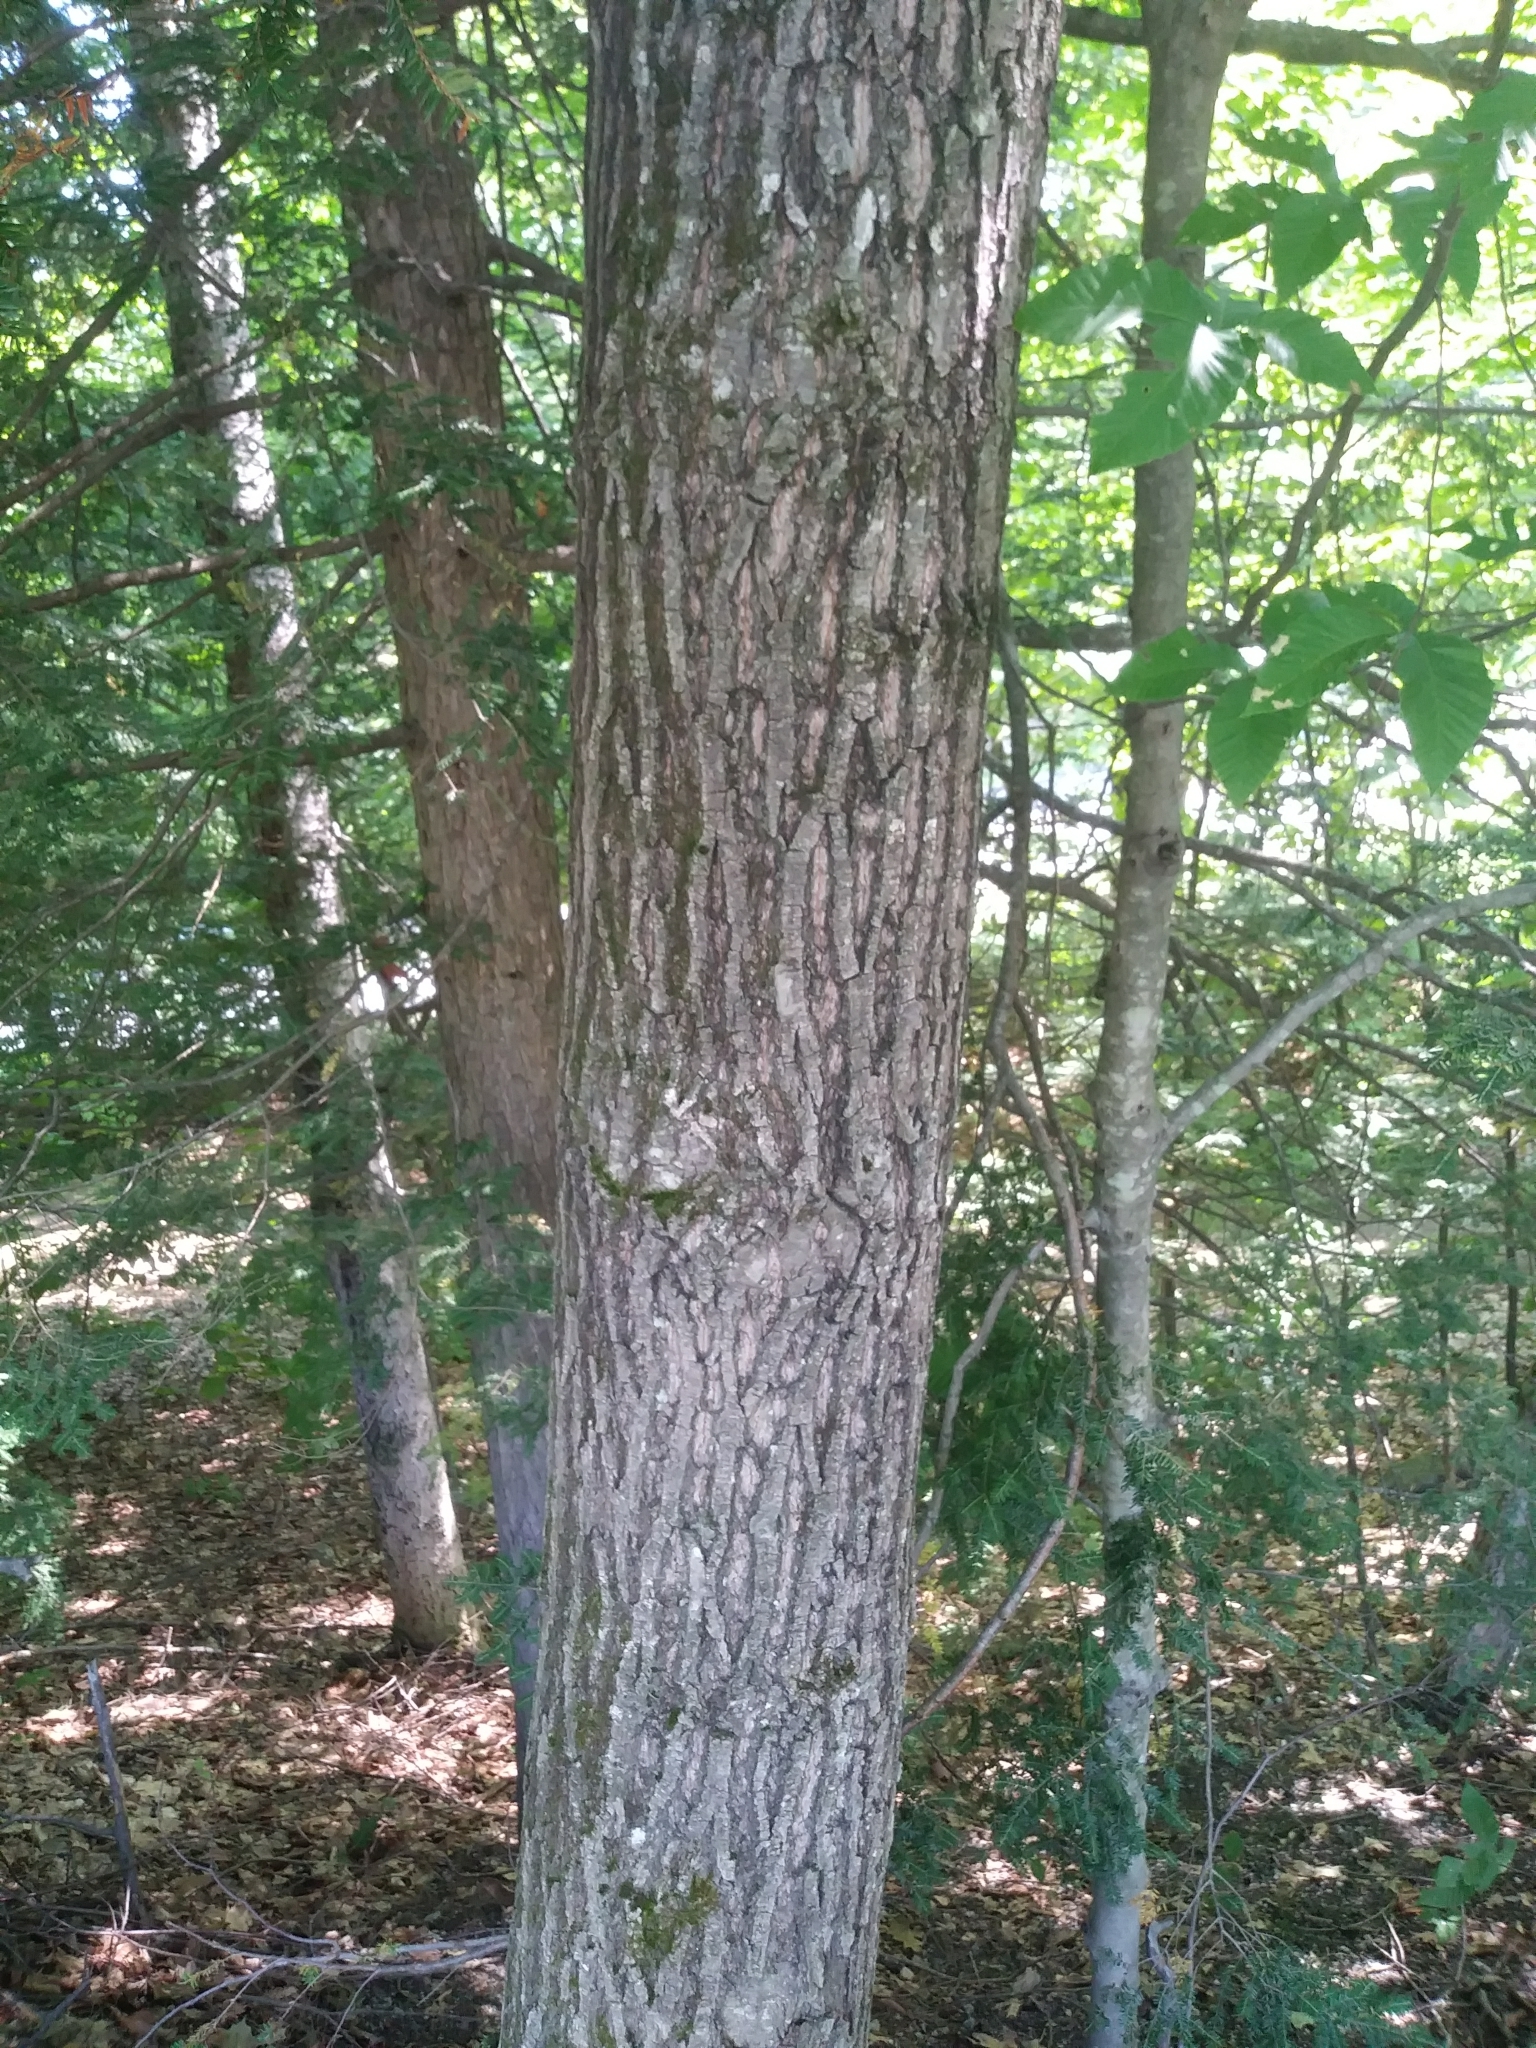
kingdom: Plantae
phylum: Tracheophyta
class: Pinopsida
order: Pinales
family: Pinaceae
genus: Tsuga
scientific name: Tsuga canadensis
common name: Eastern hemlock
